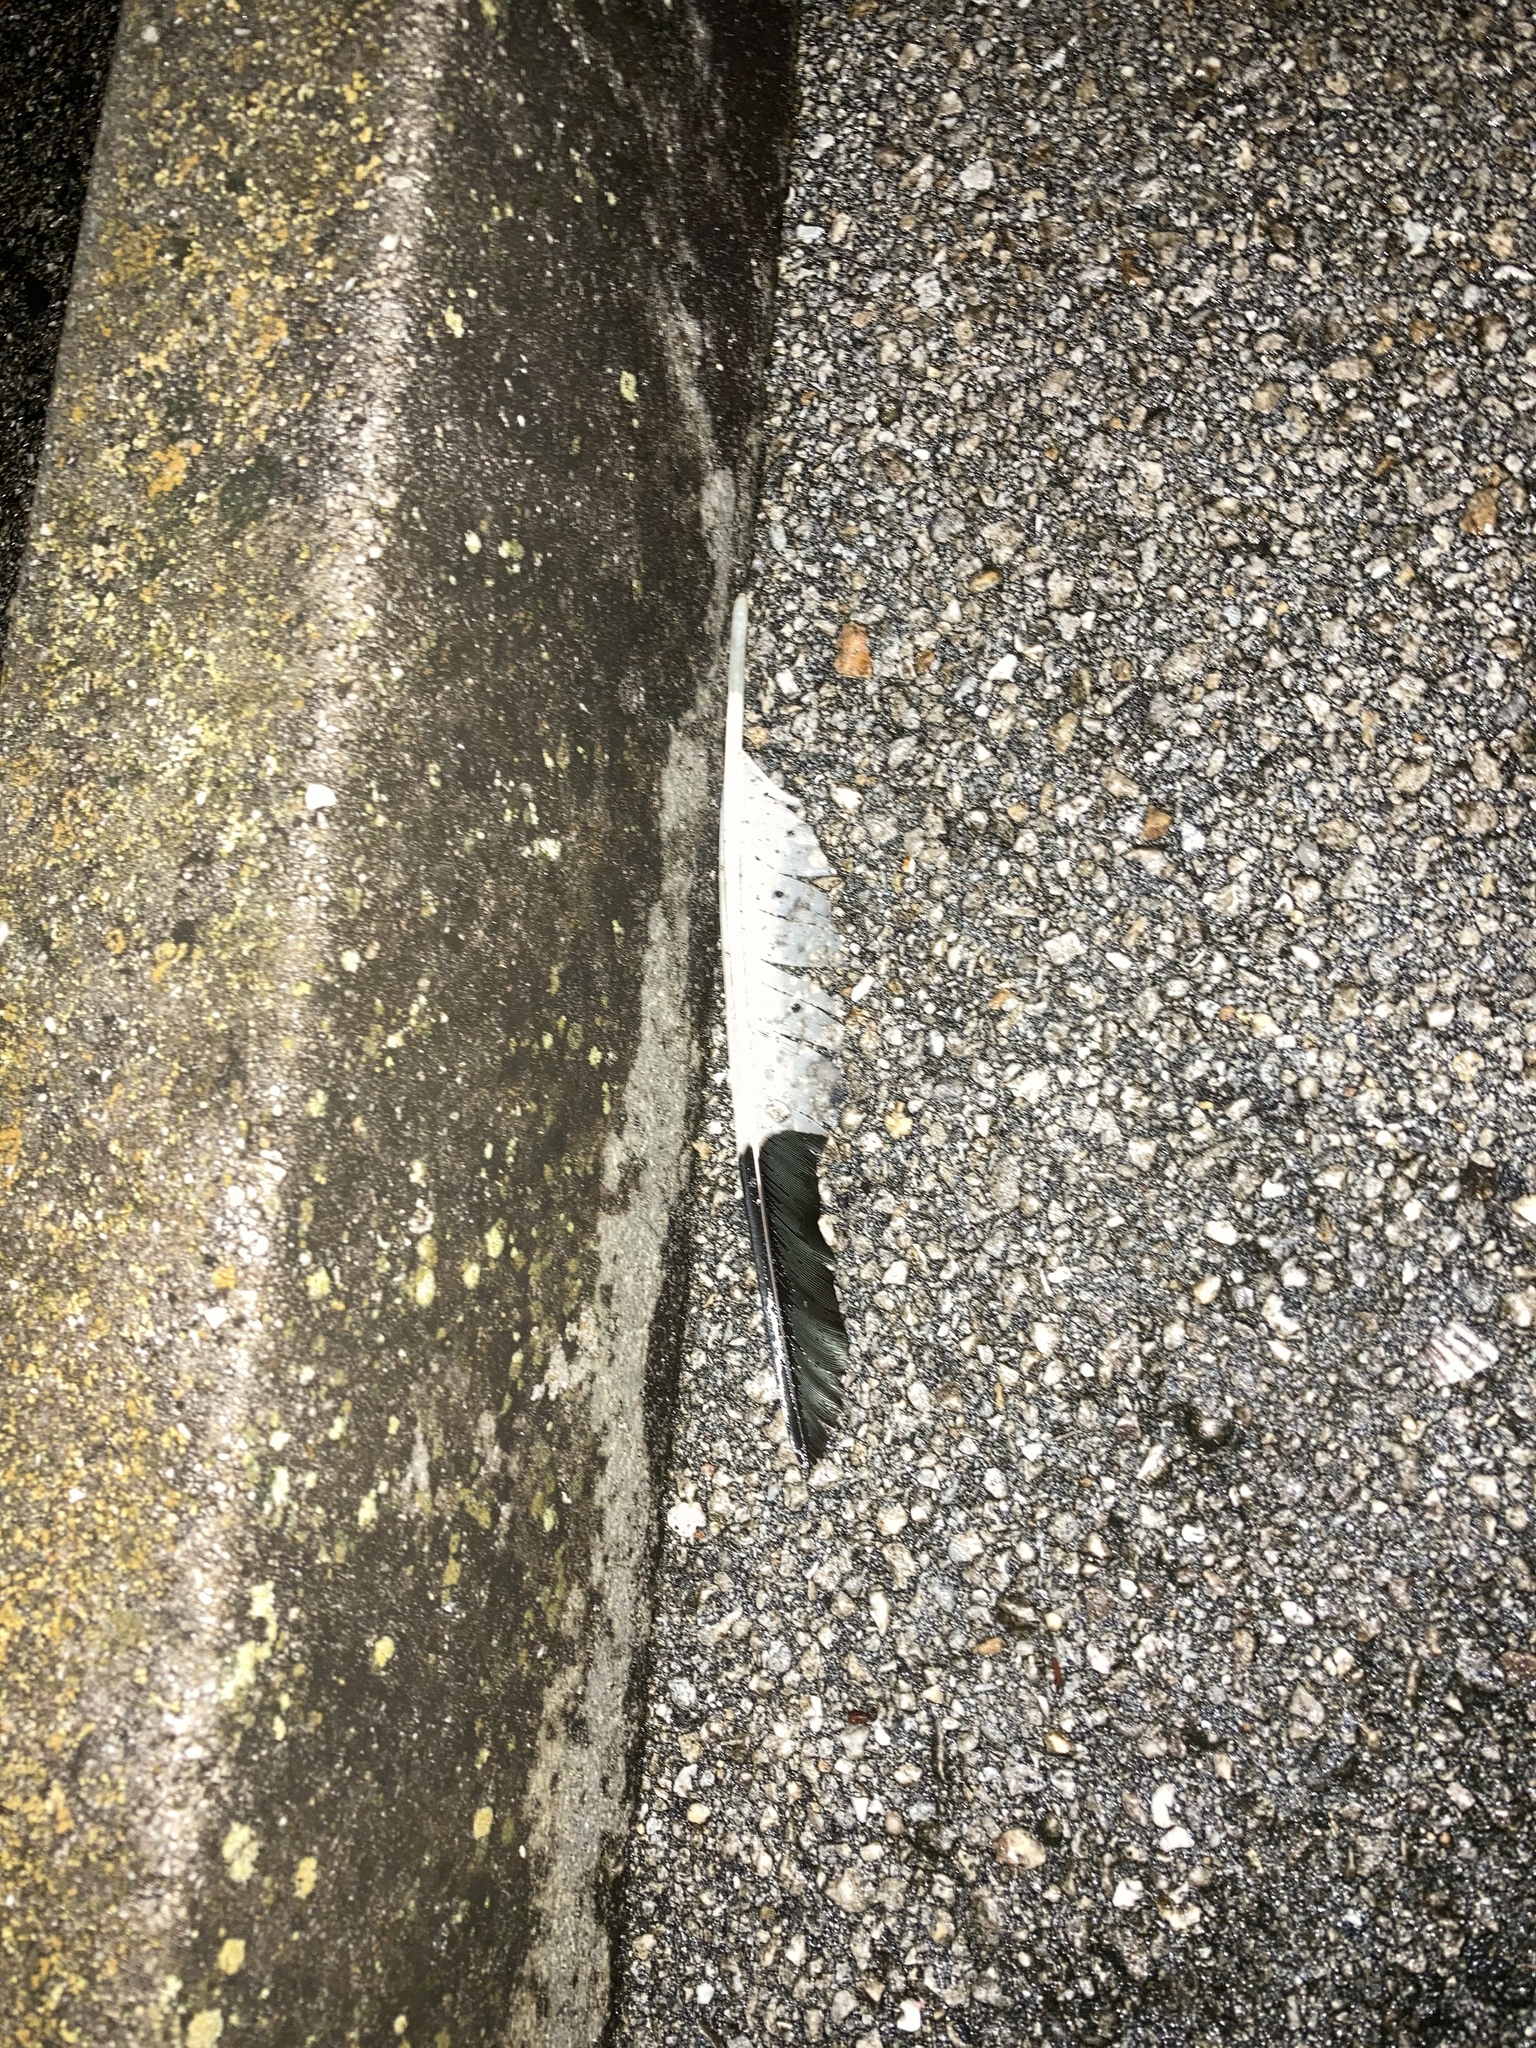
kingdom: Animalia
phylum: Chordata
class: Aves
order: Pelecaniformes
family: Threskiornithidae
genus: Eudocimus
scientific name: Eudocimus albus
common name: White ibis
